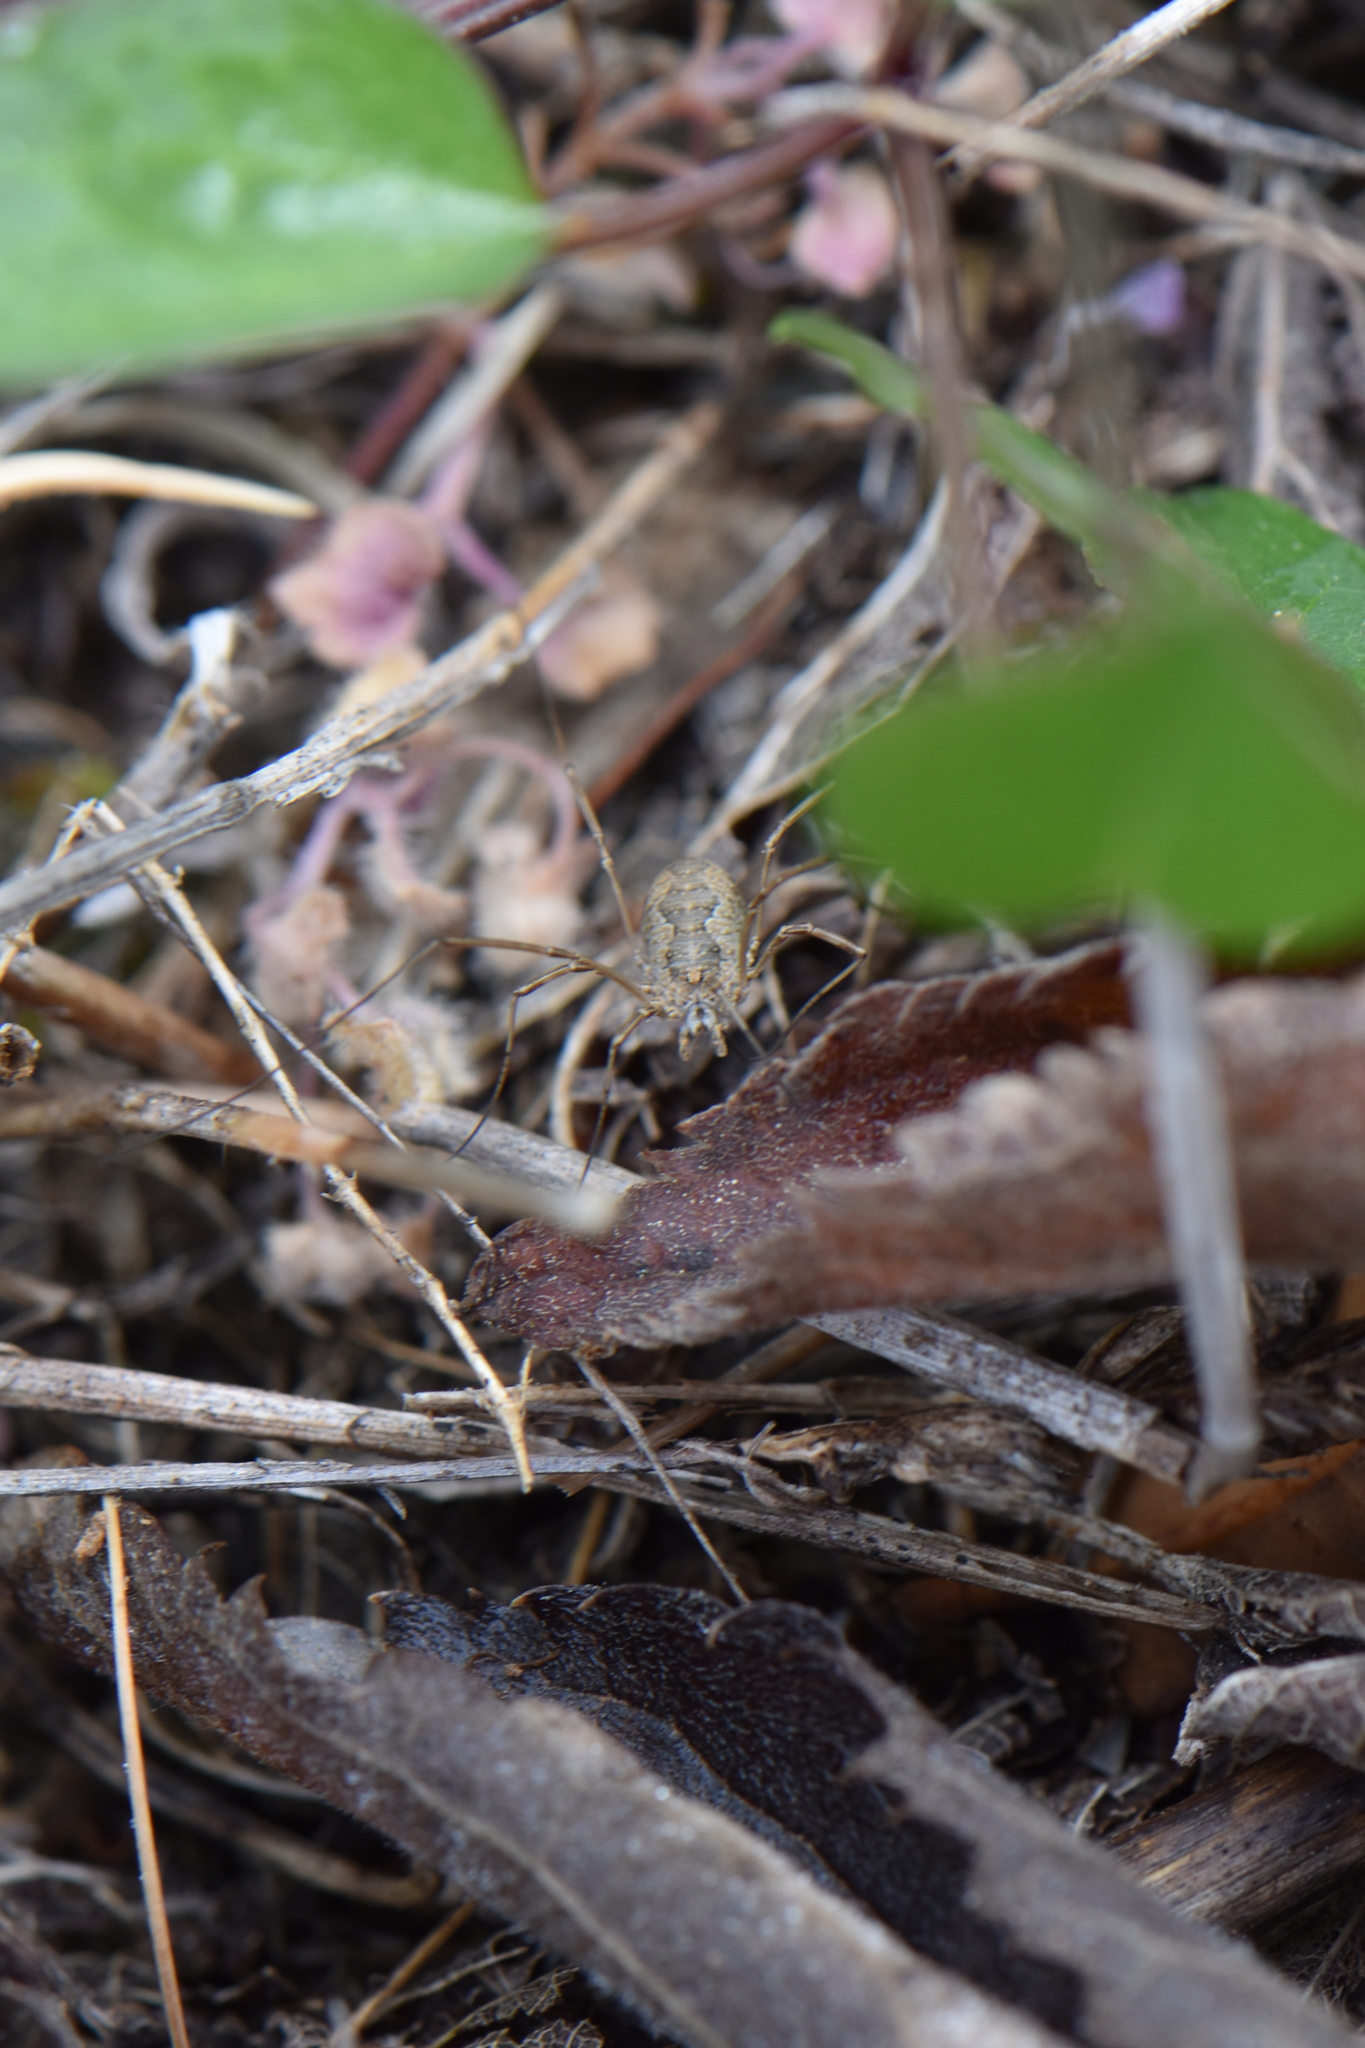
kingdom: Animalia
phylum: Arthropoda
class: Arachnida
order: Opiliones
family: Phalangiidae
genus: Phalangium
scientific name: Phalangium opilio
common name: Daddy longleg
